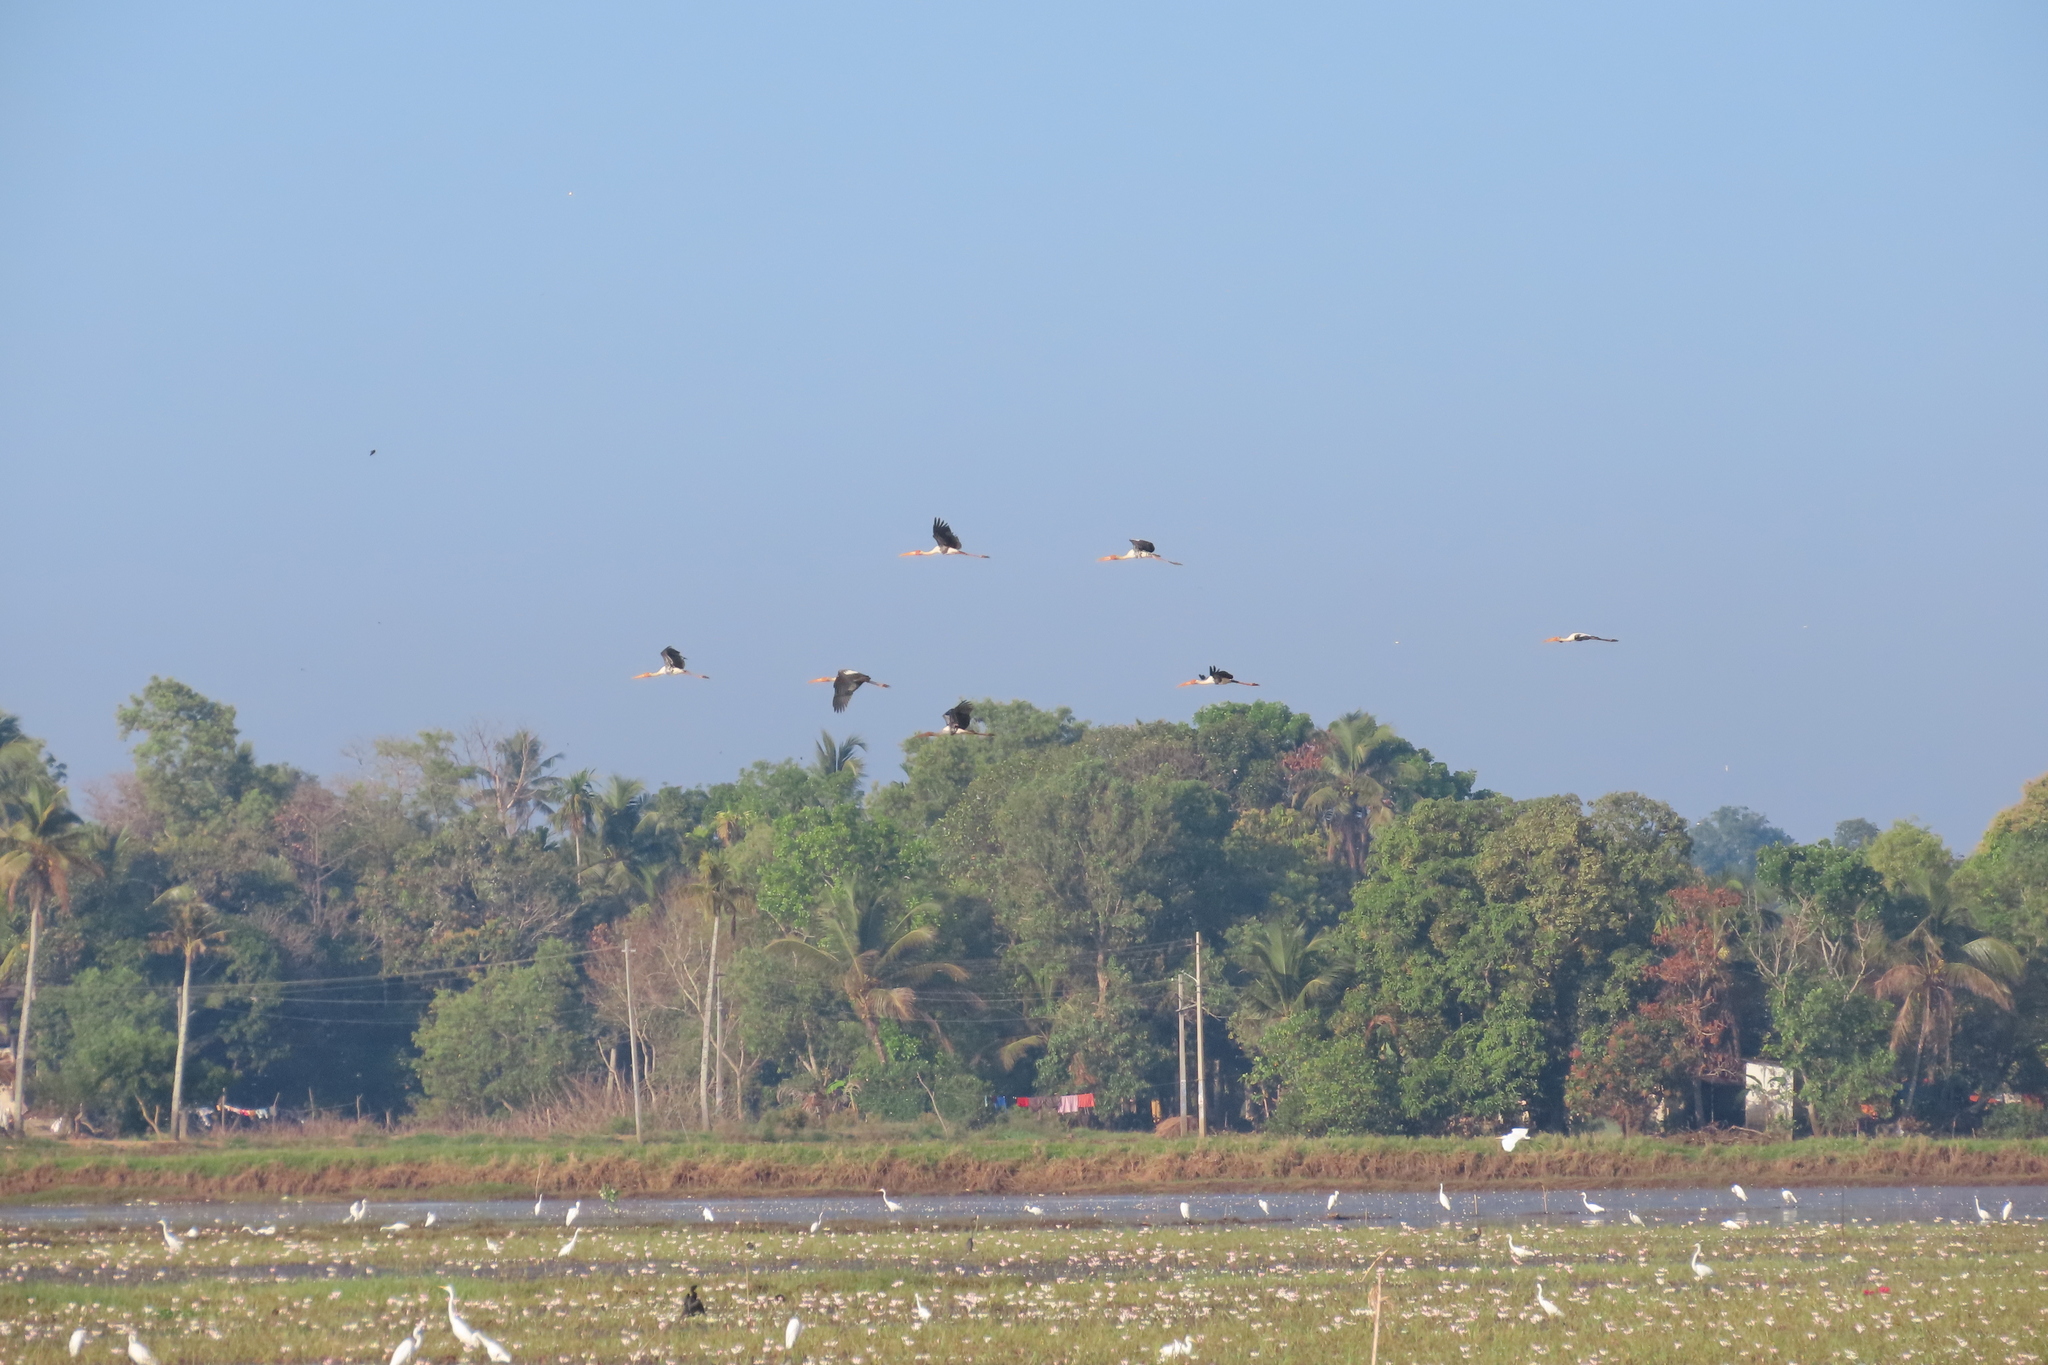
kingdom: Animalia
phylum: Chordata
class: Aves
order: Suliformes
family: Phalacrocoracidae
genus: Microcarbo
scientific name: Microcarbo niger
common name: Little cormorant
